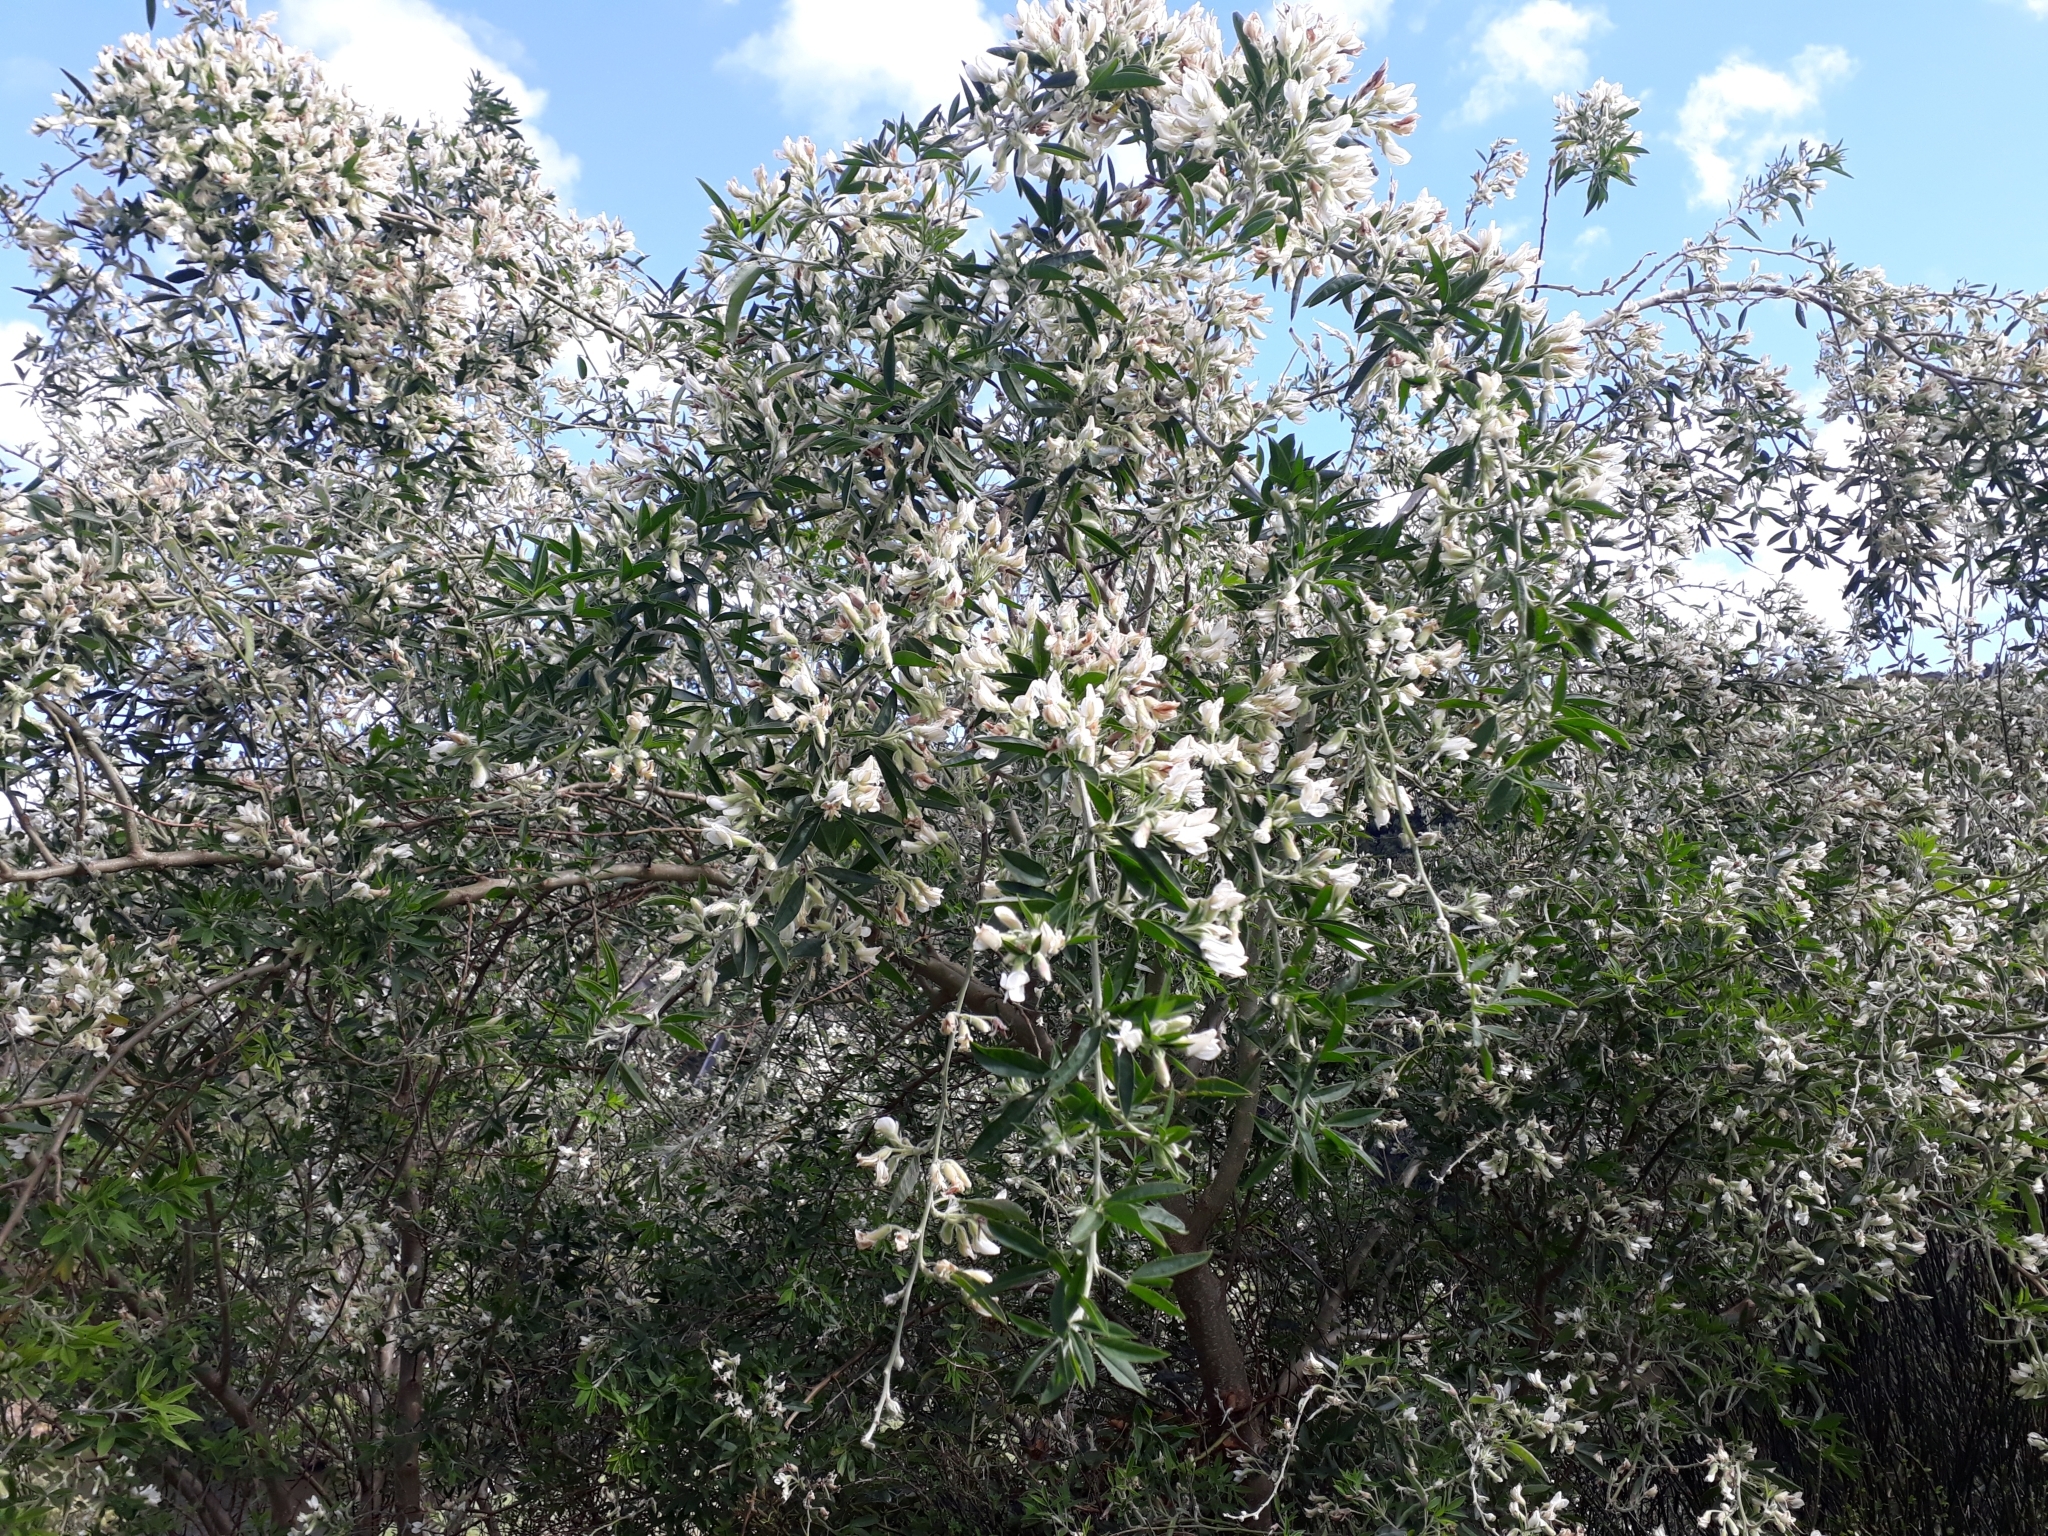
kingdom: Plantae
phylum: Tracheophyta
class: Magnoliopsida
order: Fabales
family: Fabaceae
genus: Chamaecytisus
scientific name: Chamaecytisus prolifer
